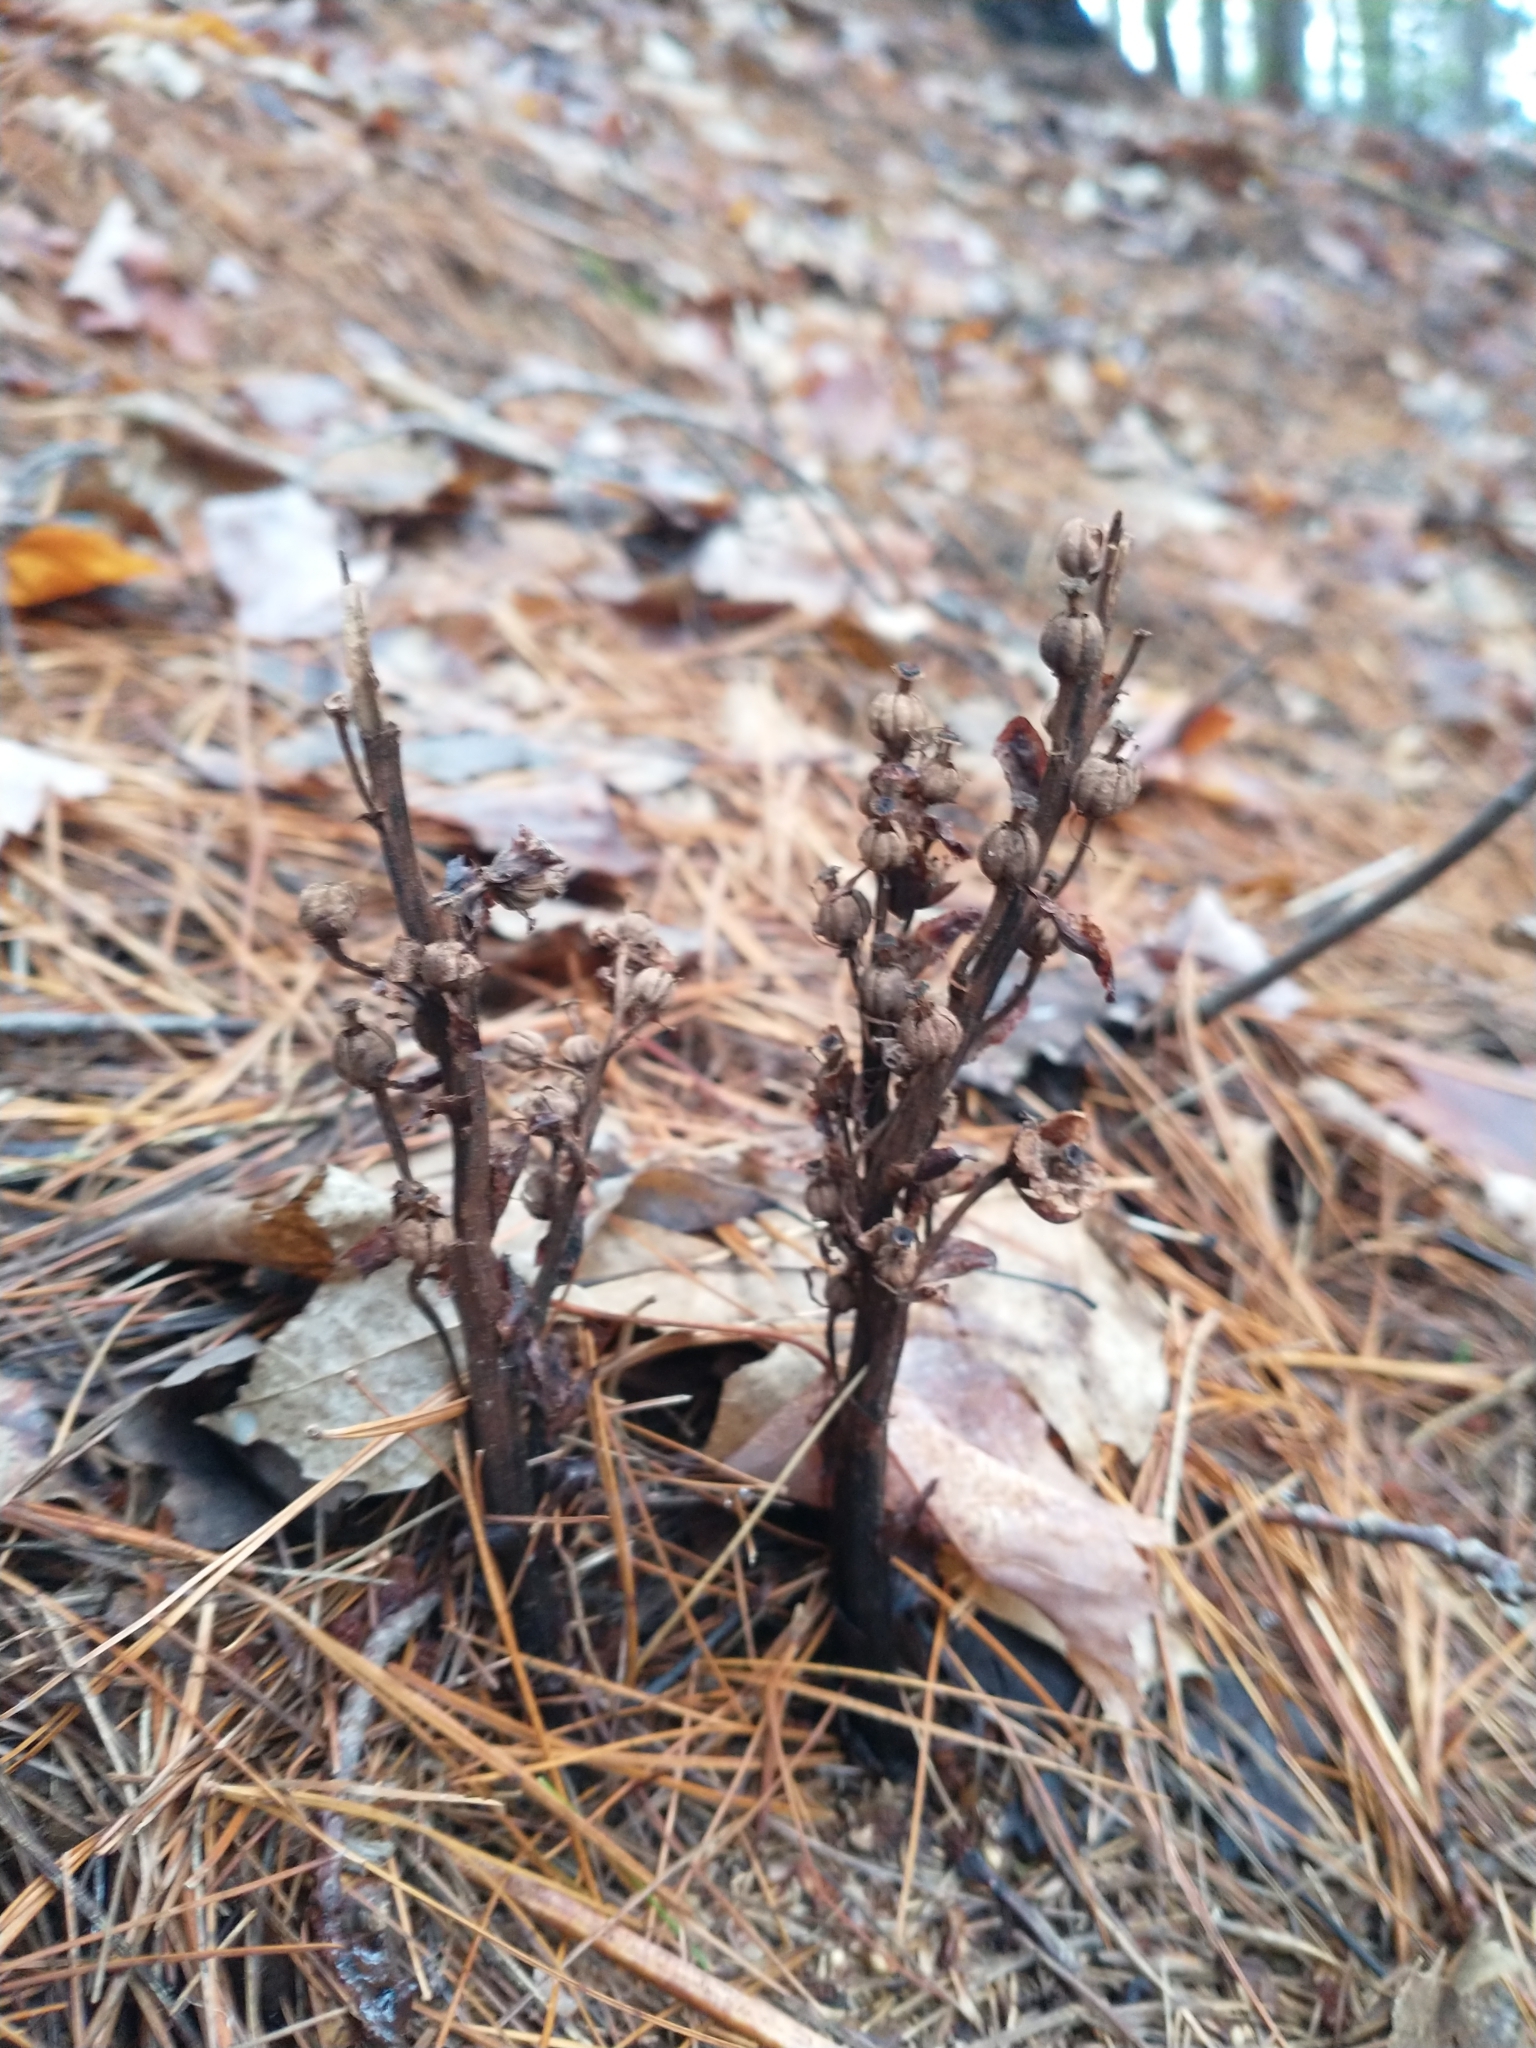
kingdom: Plantae
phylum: Tracheophyta
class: Magnoliopsida
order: Ericales
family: Ericaceae
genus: Hypopitys
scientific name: Hypopitys monotropa
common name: Yellow bird's-nest
